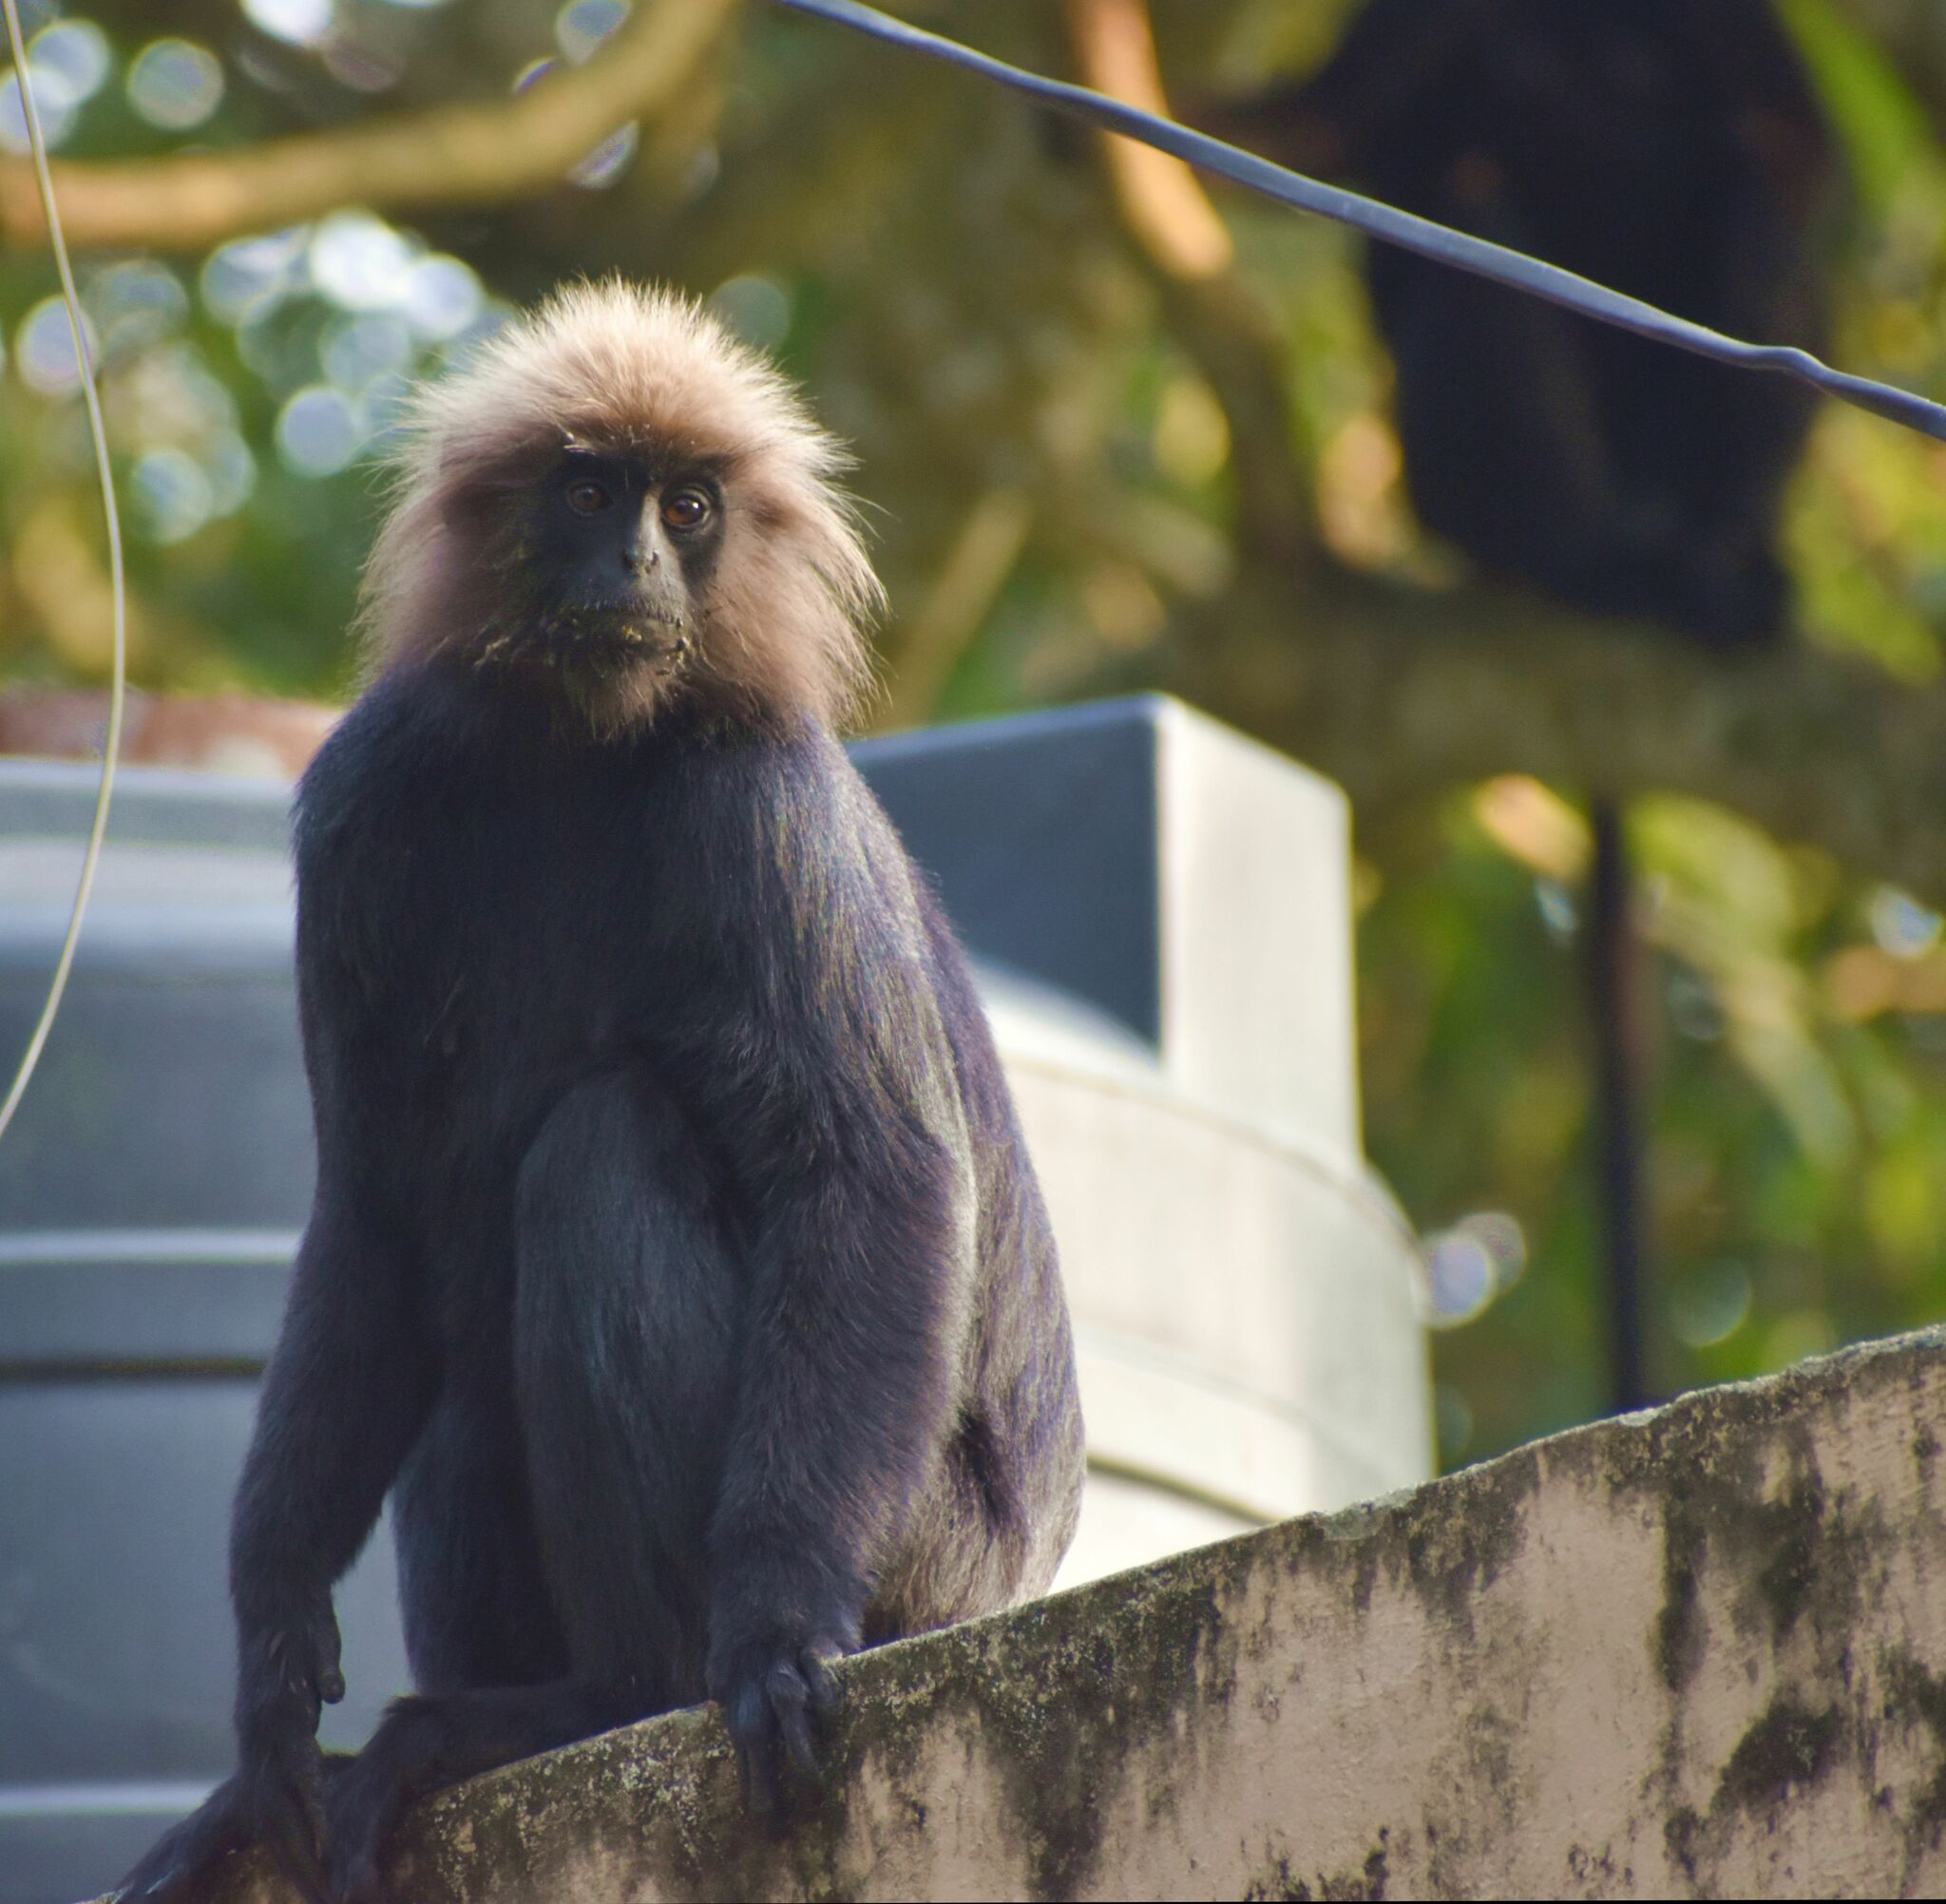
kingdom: Animalia
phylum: Chordata
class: Mammalia
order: Primates
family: Cercopithecidae
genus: Semnopithecus
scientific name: Semnopithecus johnii
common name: Nilgiri langur
